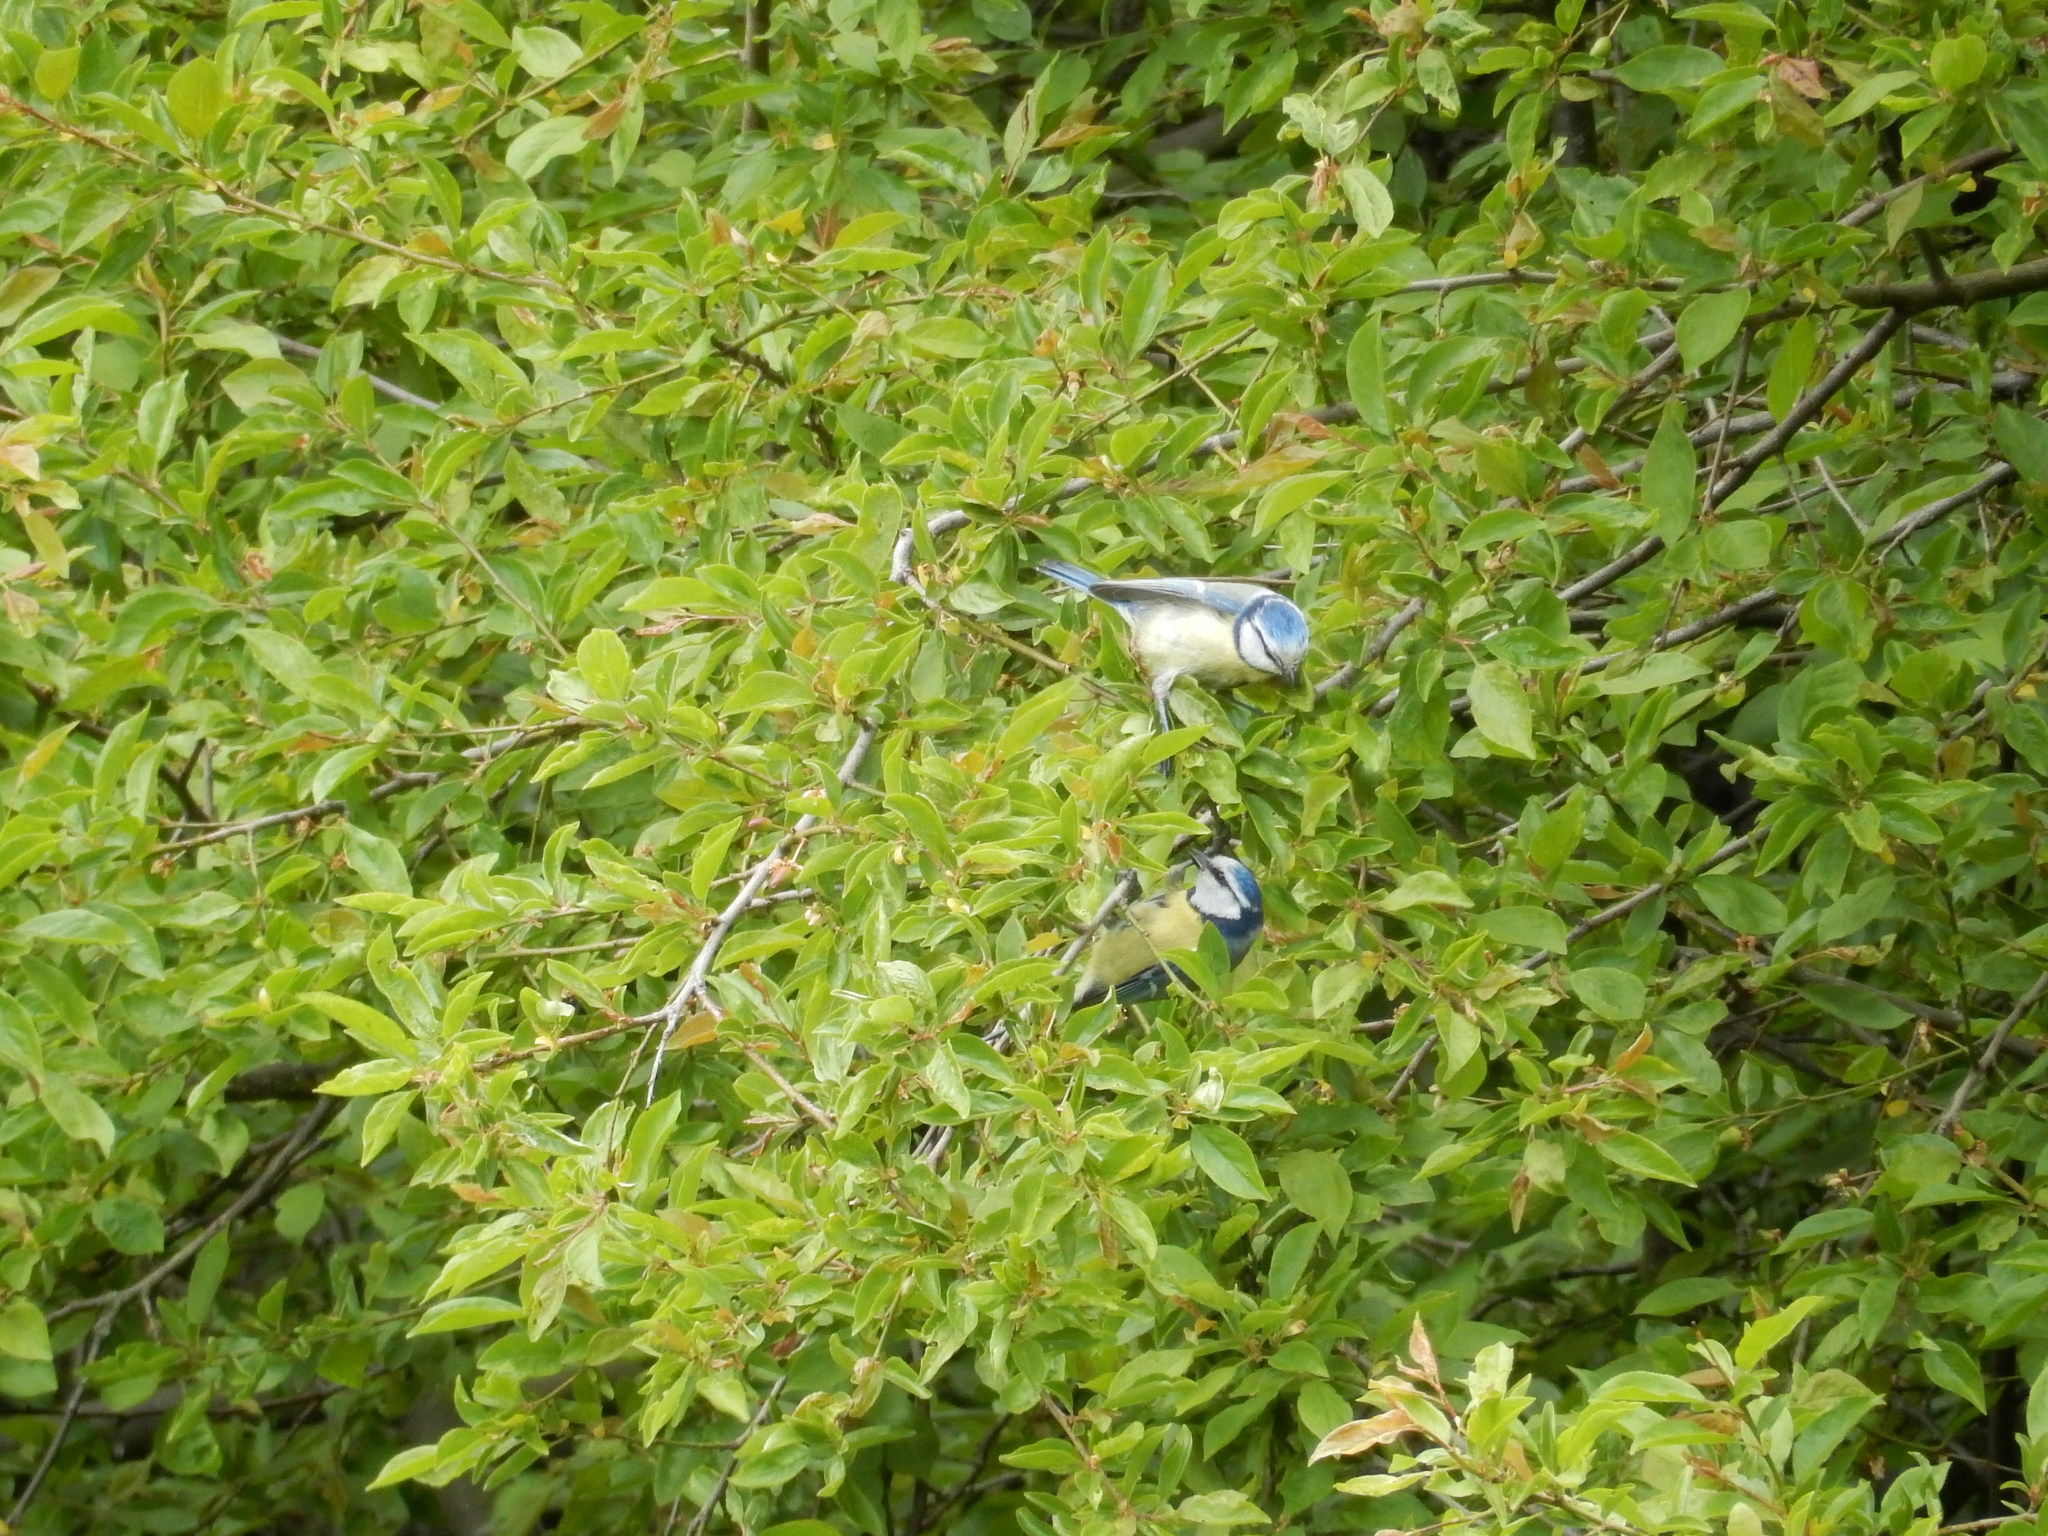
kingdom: Animalia
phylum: Chordata
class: Aves
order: Passeriformes
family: Paridae
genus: Cyanistes
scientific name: Cyanistes caeruleus
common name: Eurasian blue tit
